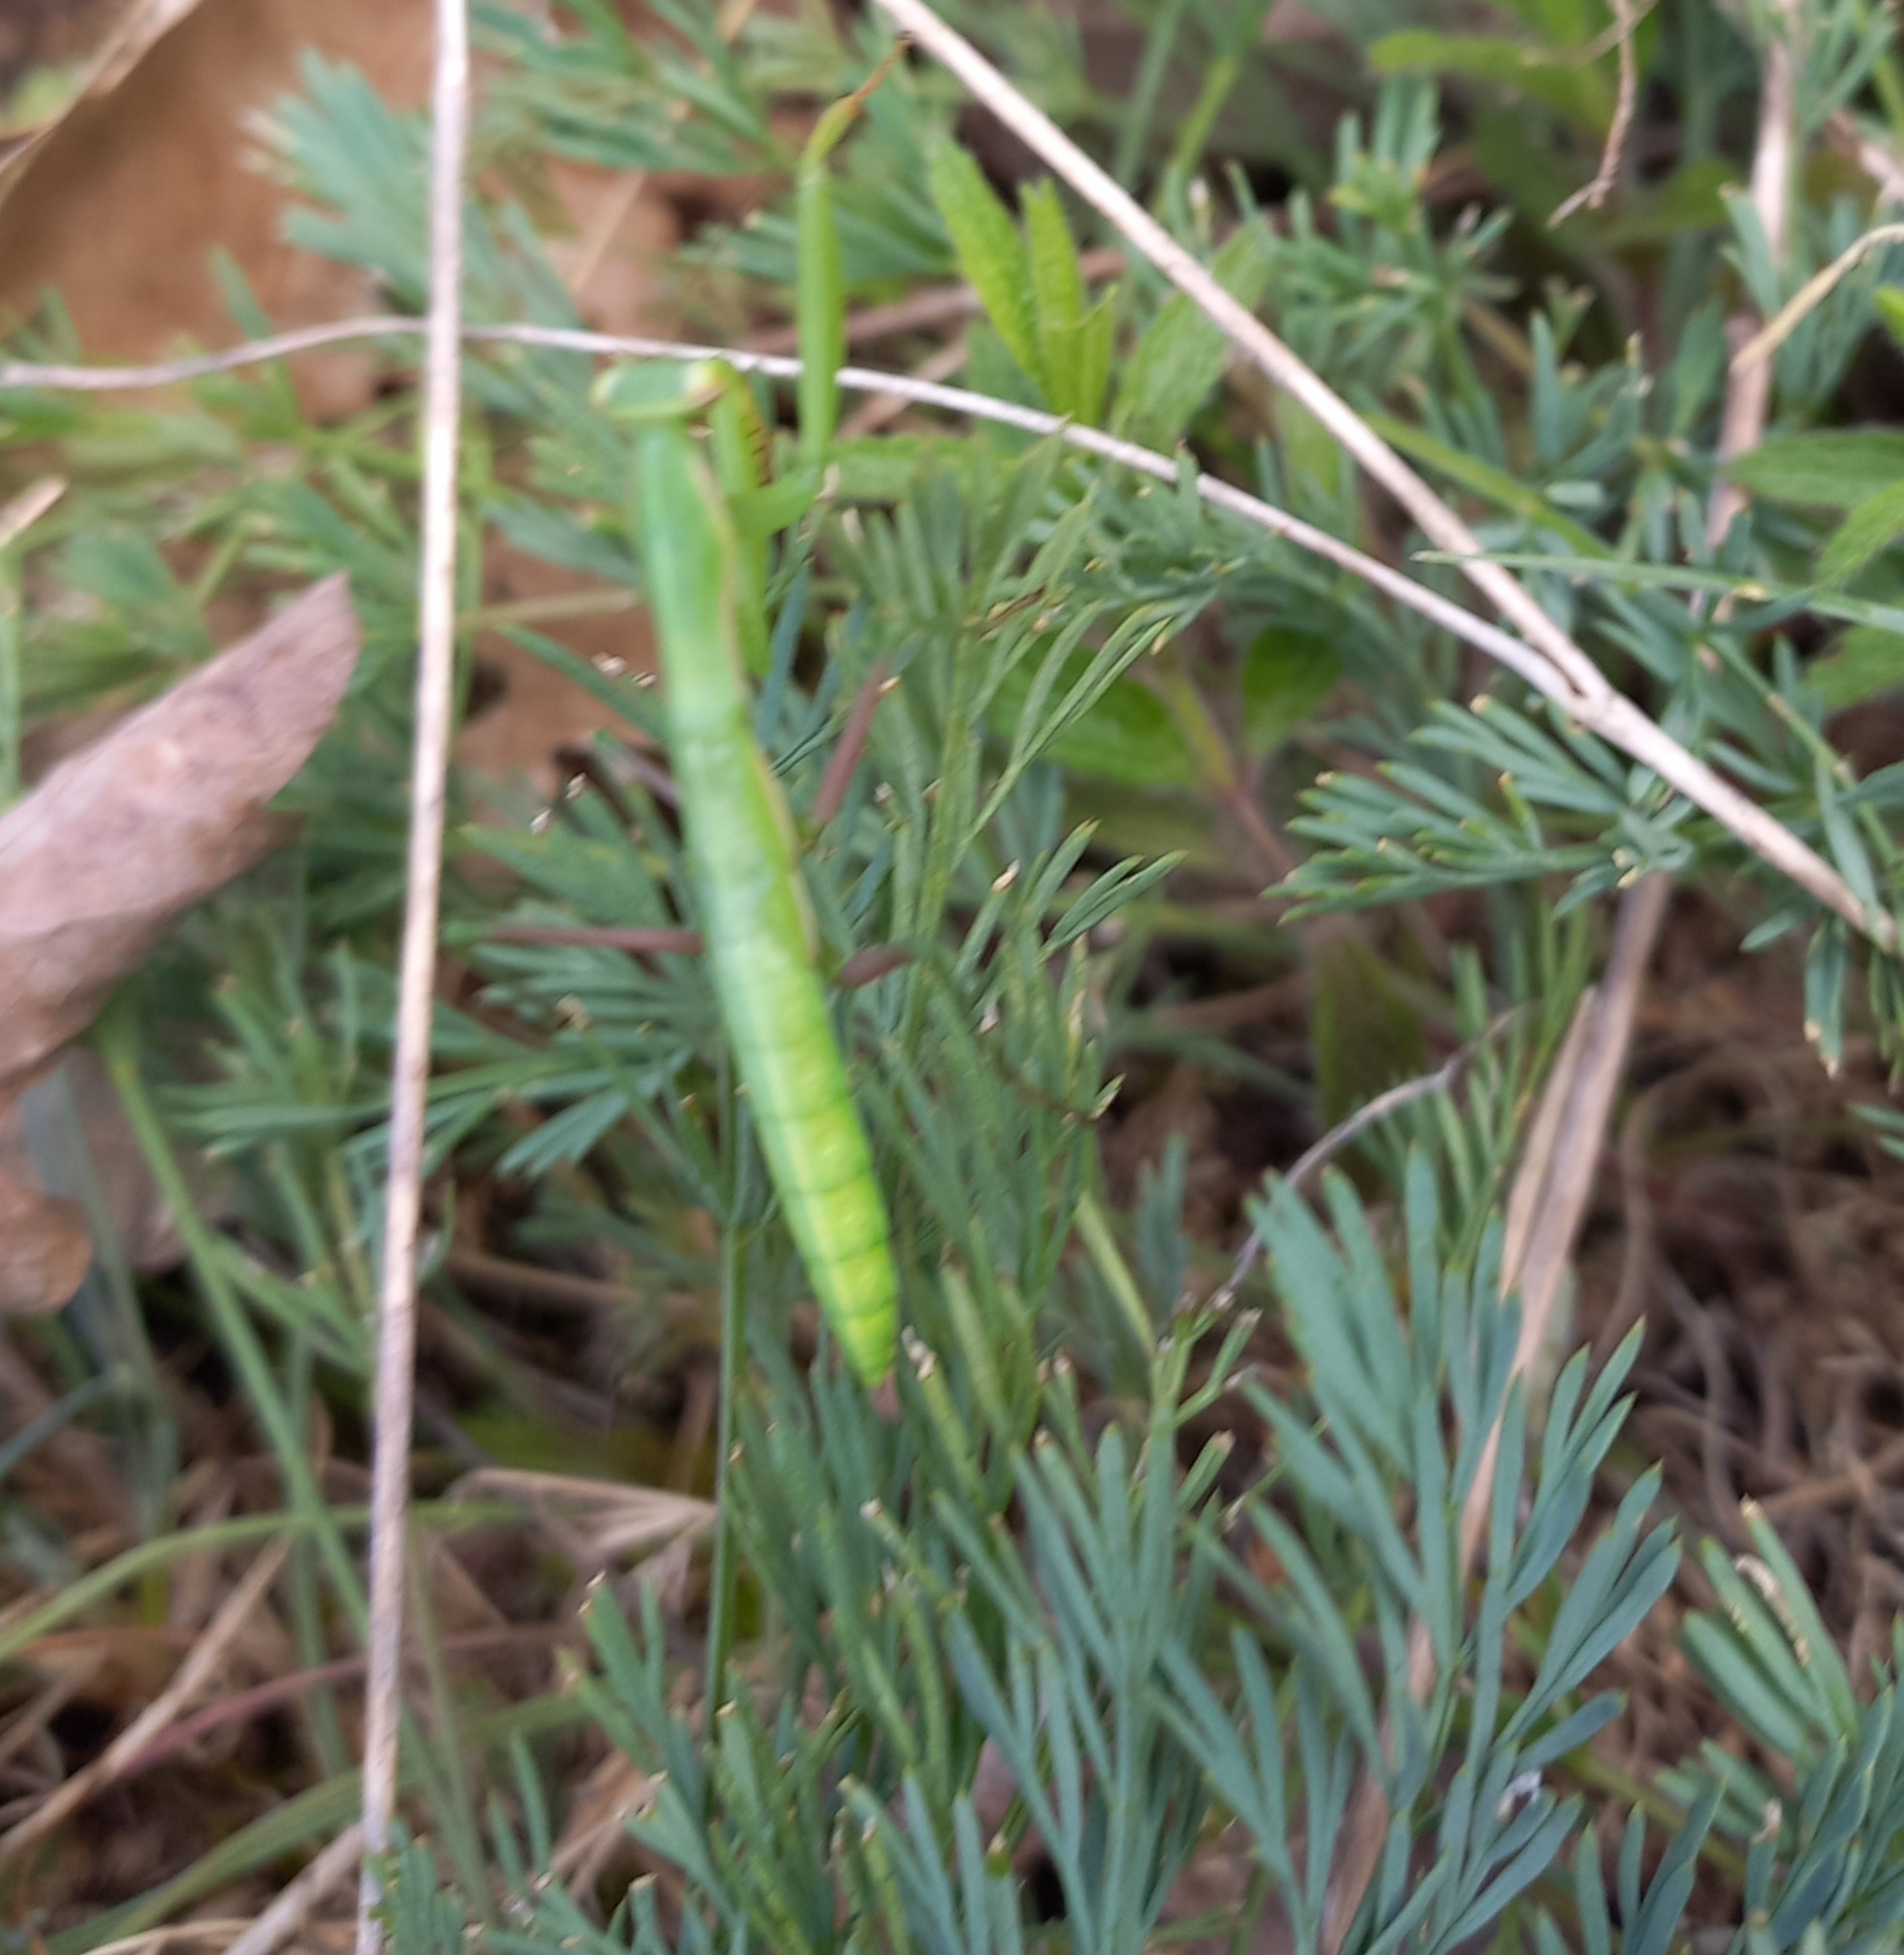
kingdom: Animalia
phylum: Arthropoda
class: Insecta
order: Mantodea
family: Mantidae
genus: Mantis
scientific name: Mantis religiosa
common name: Praying mantis
